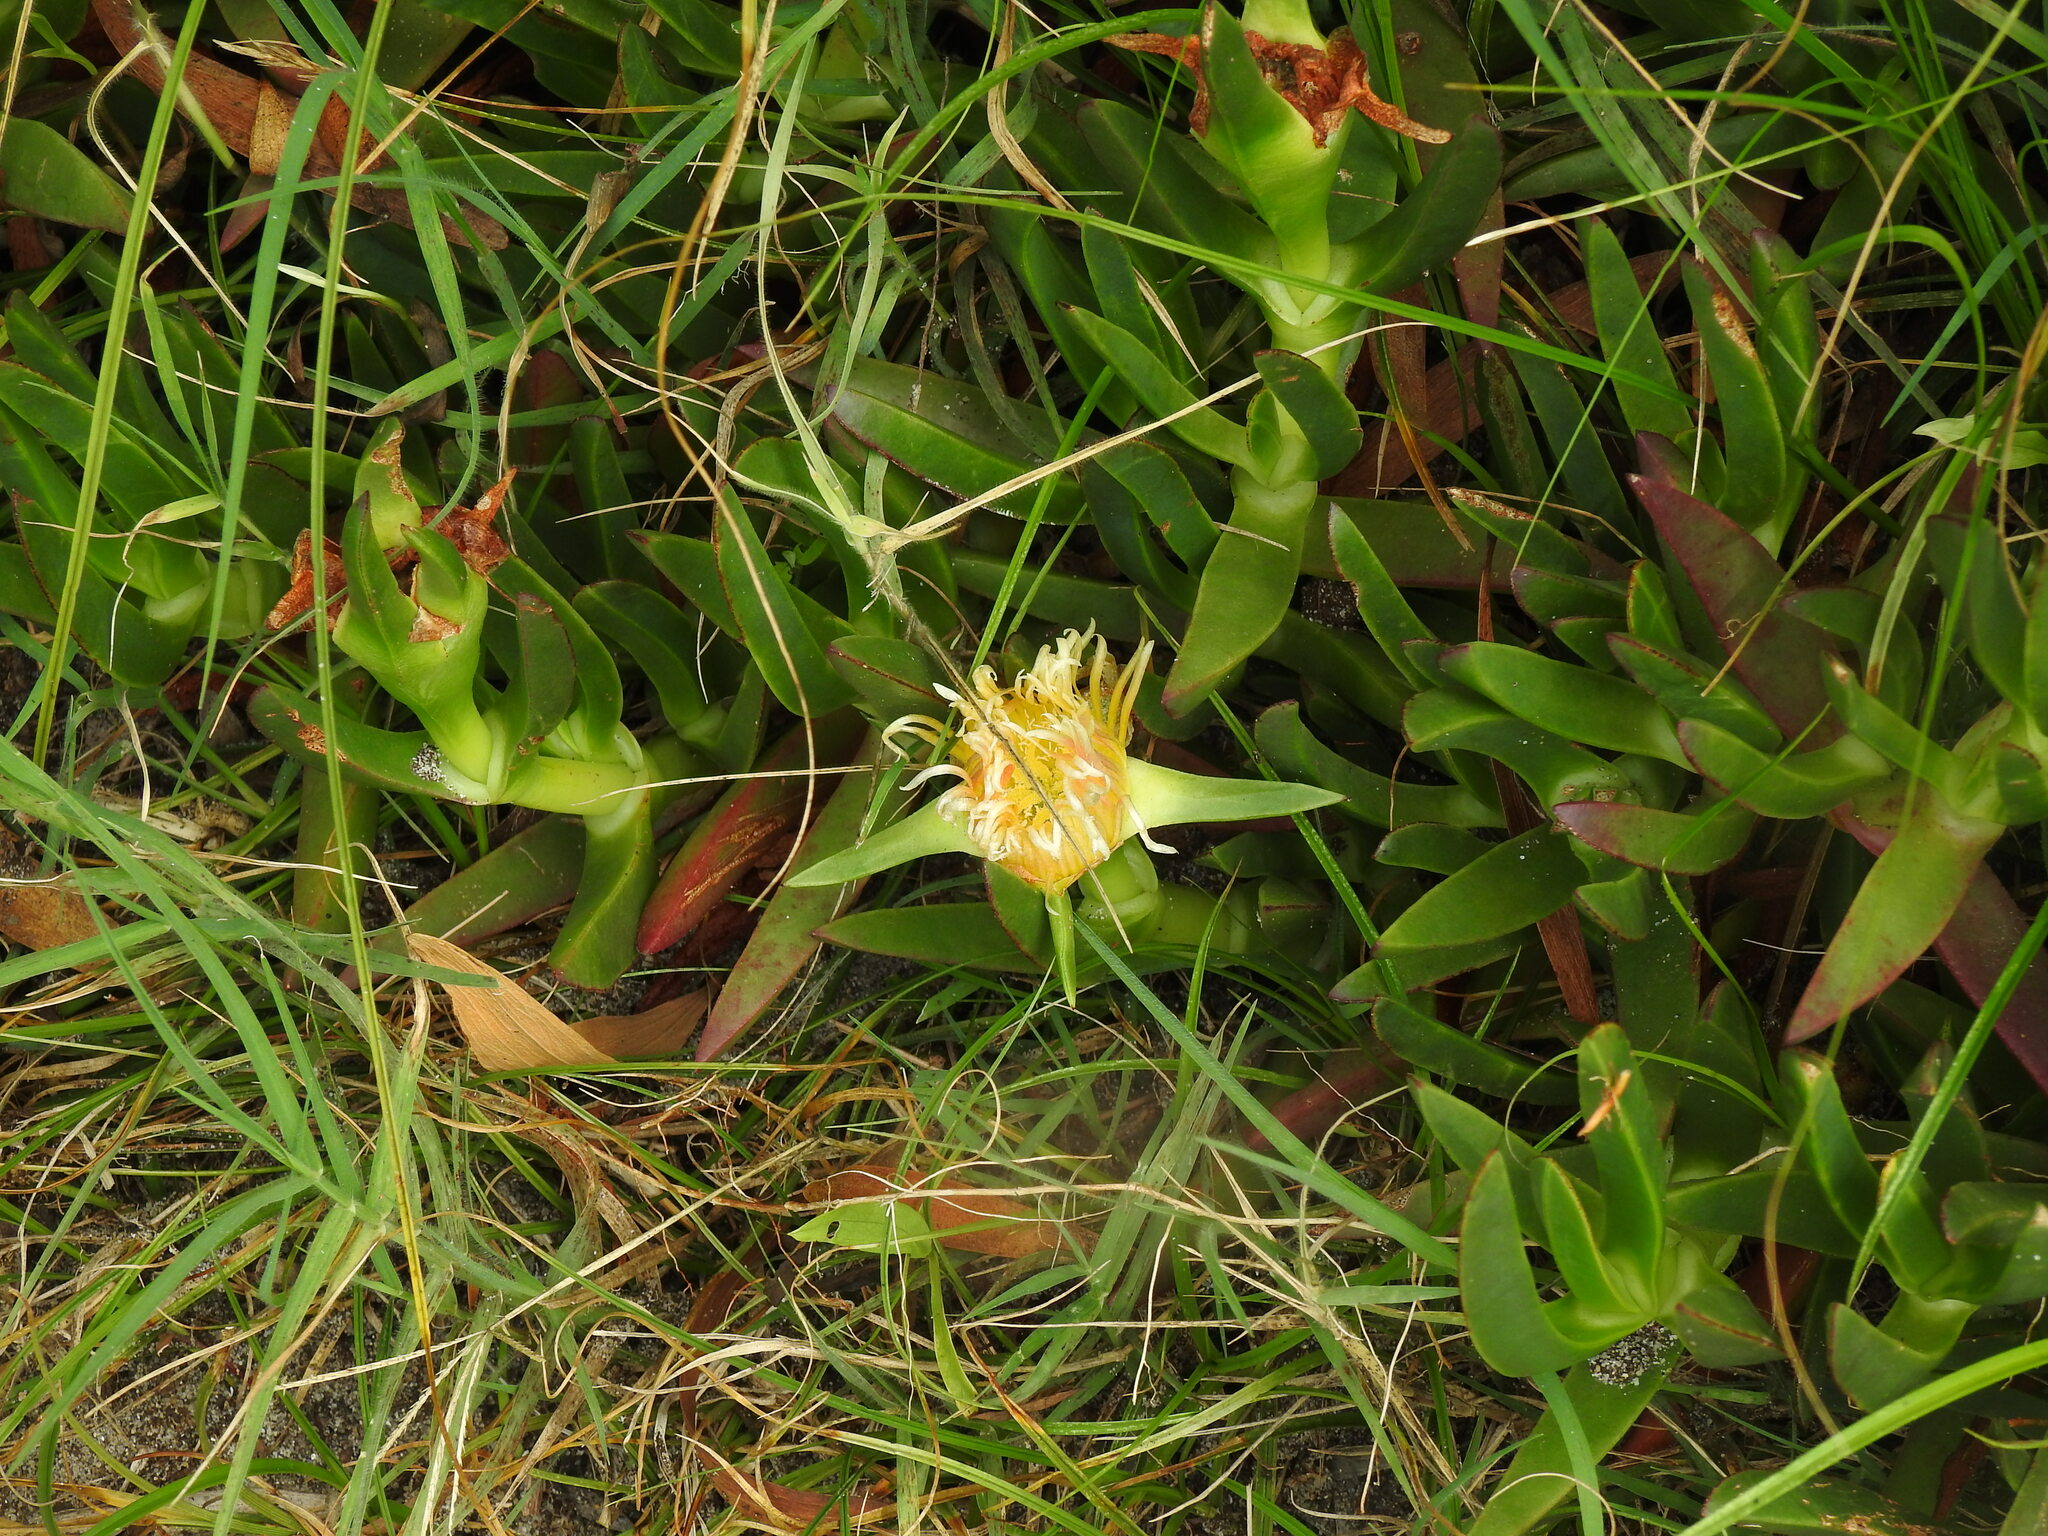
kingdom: Plantae
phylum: Tracheophyta
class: Magnoliopsida
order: Caryophyllales
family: Aizoaceae
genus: Carpobrotus
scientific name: Carpobrotus edulis
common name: Hottentot-fig
